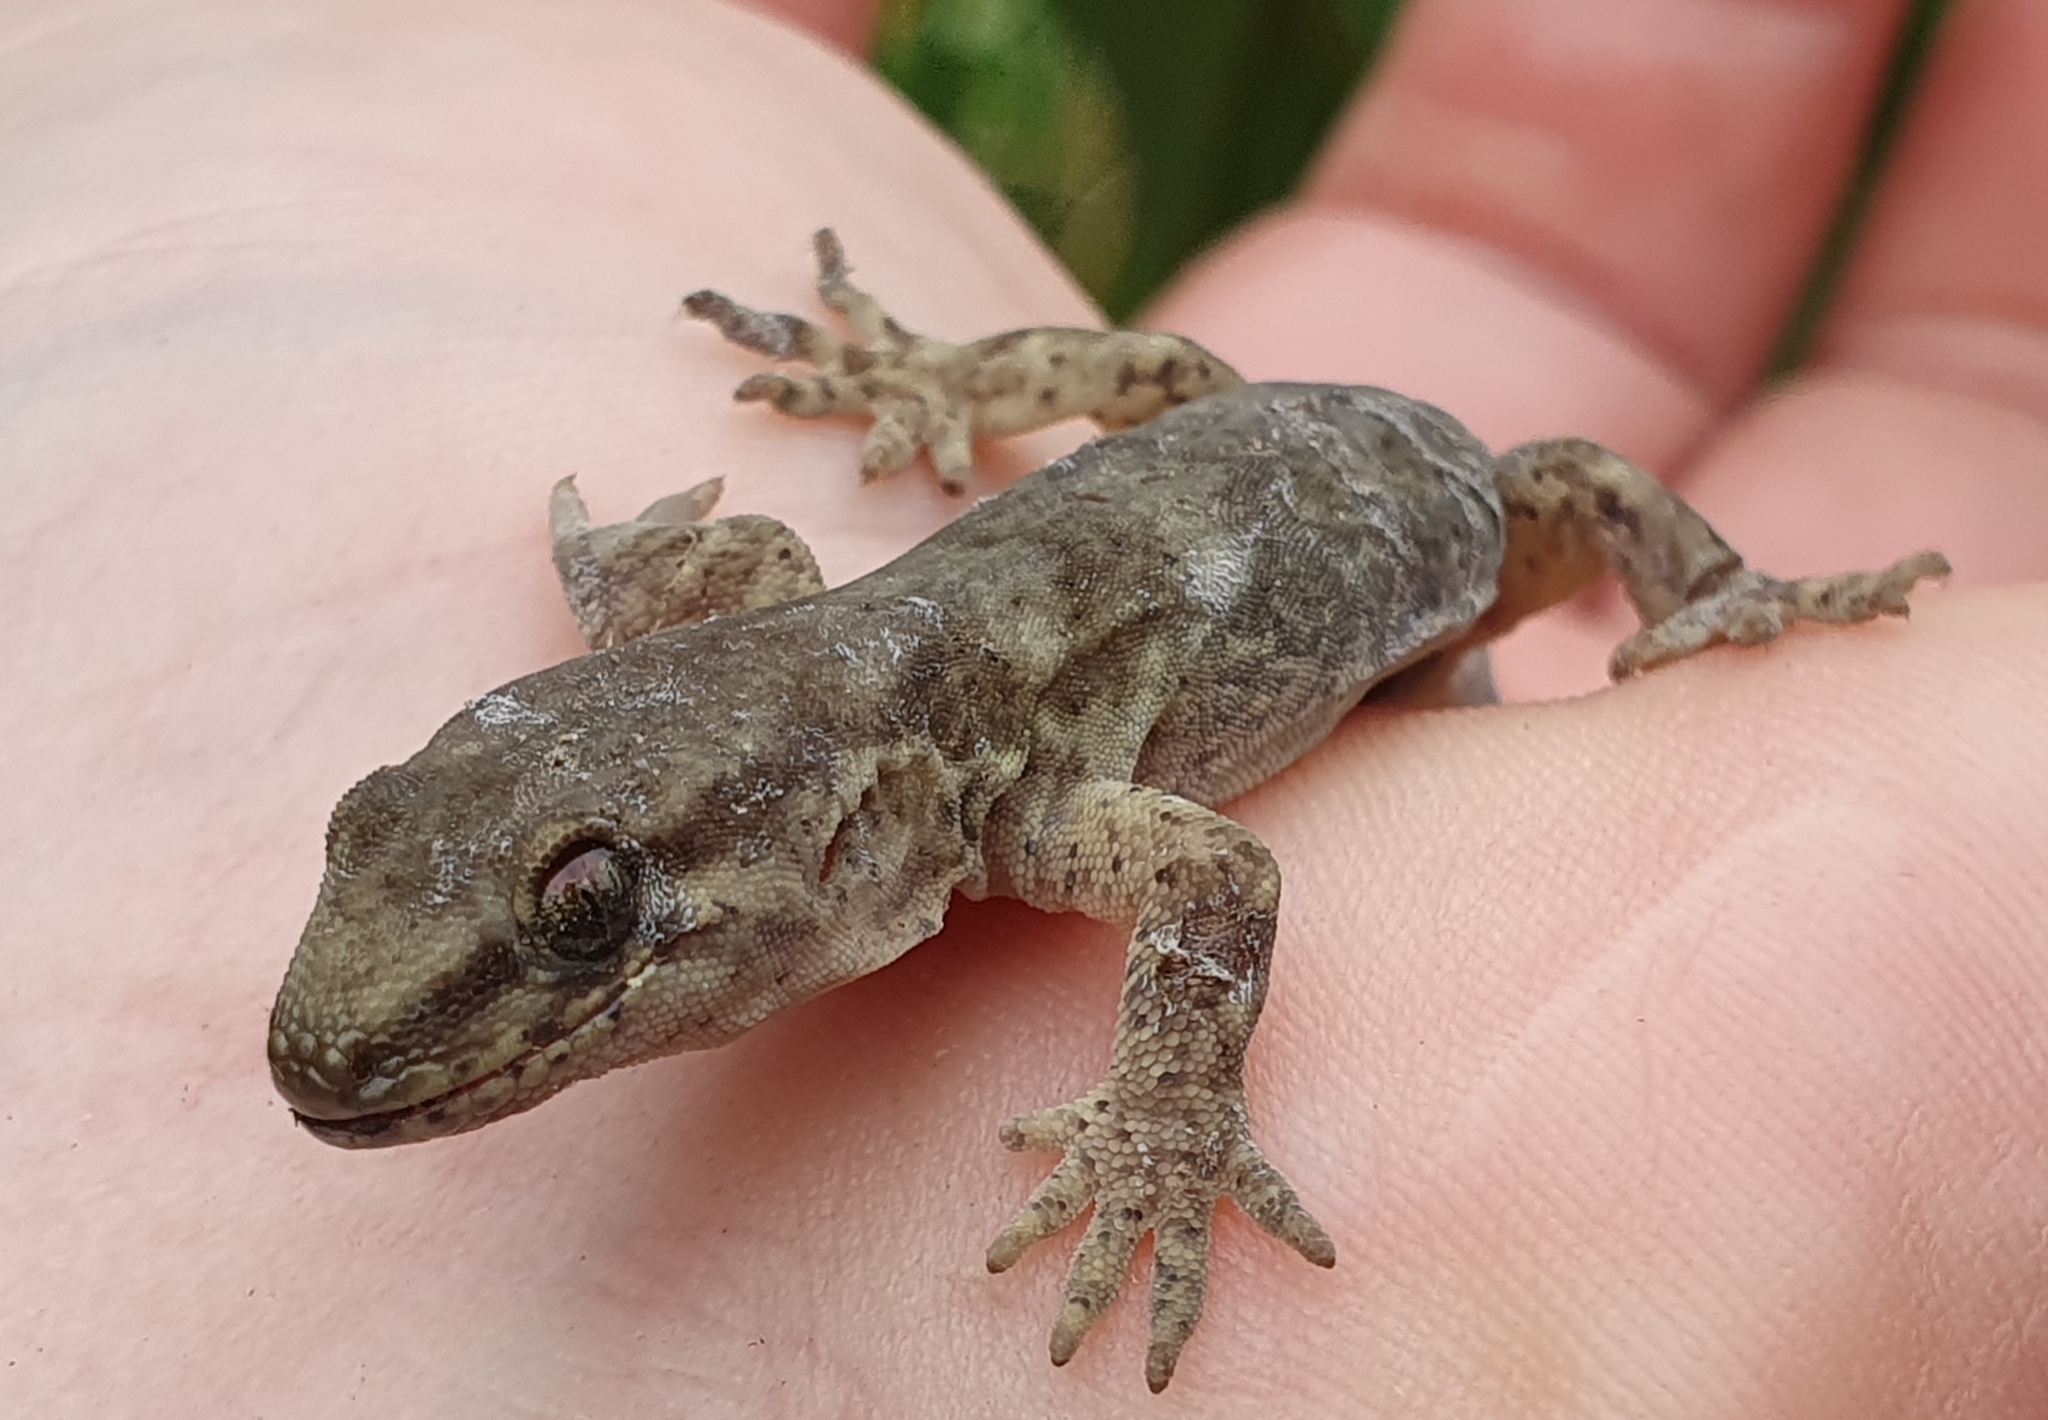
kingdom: Animalia
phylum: Chordata
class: Squamata
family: Diplodactylidae
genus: Woodworthia
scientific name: Woodworthia maculata
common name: Raukawa gecko
